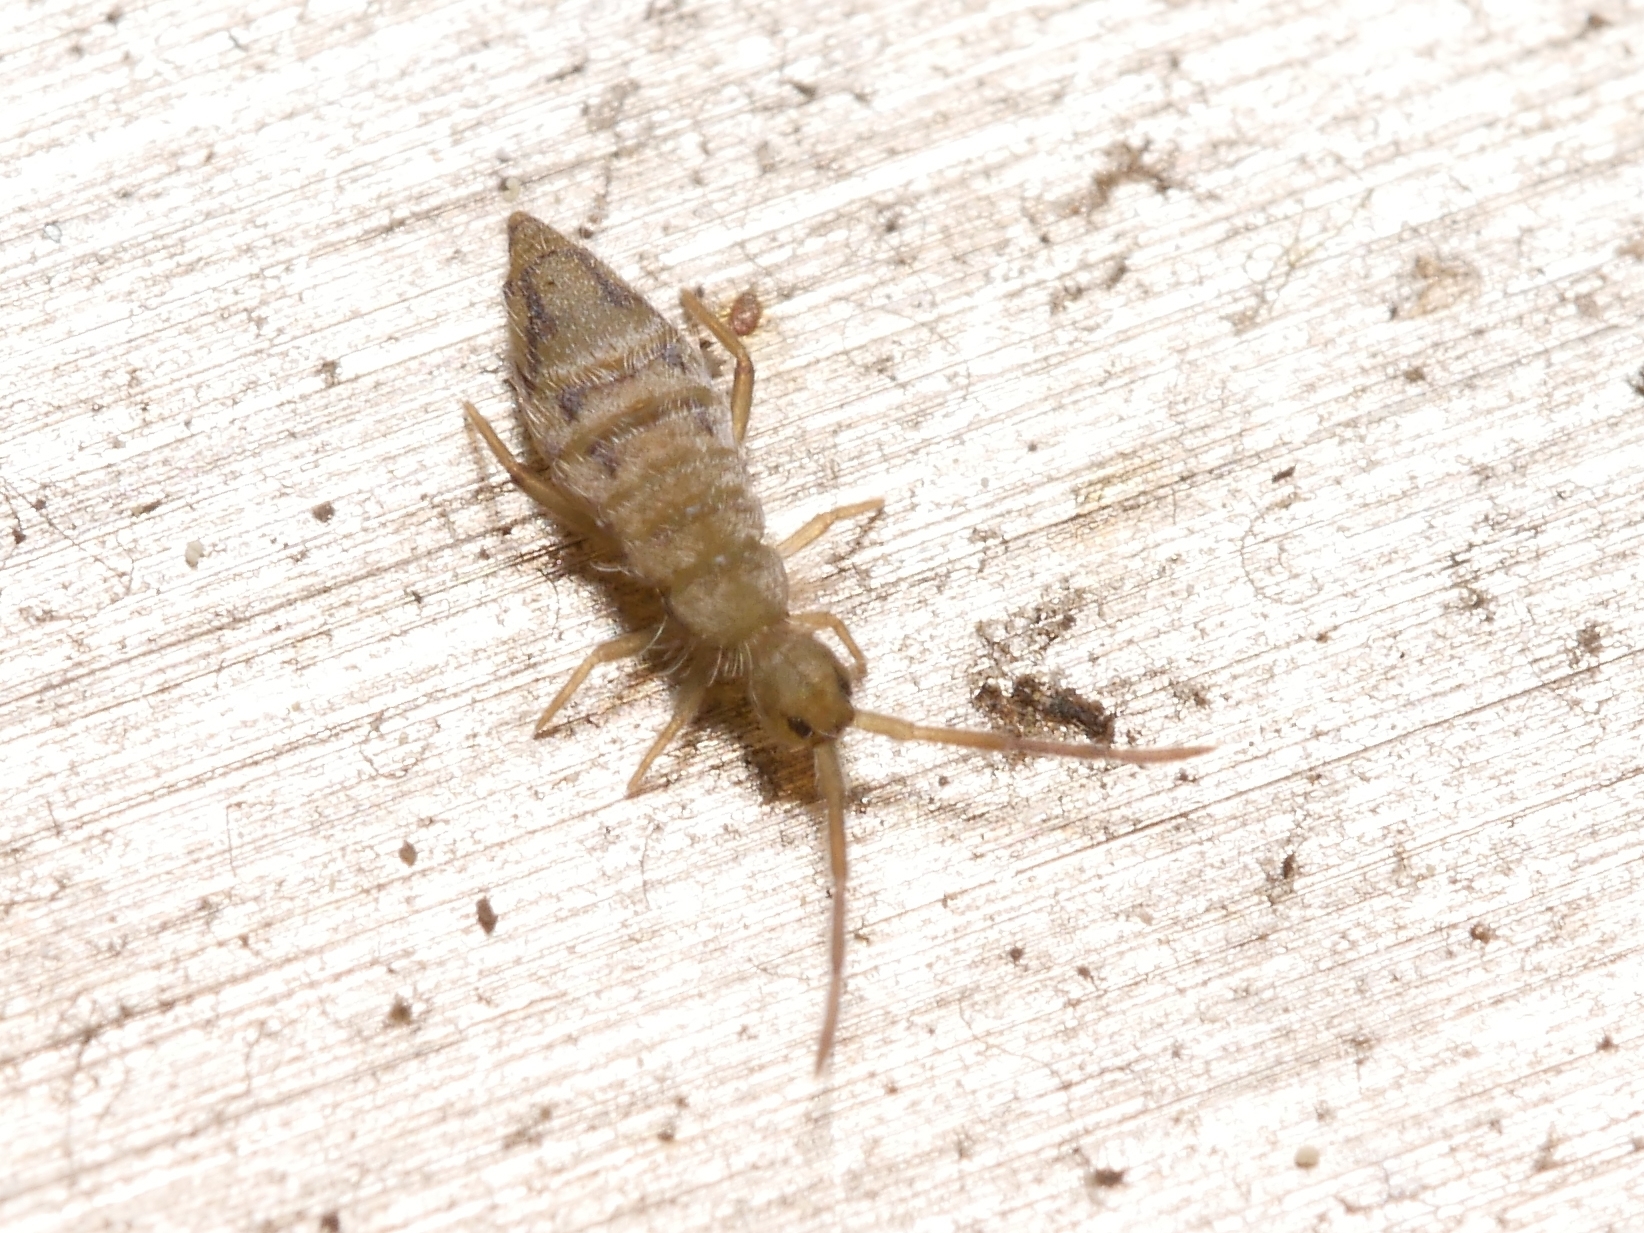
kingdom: Animalia
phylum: Arthropoda
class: Collembola
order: Entomobryomorpha
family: Entomobryidae
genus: Entomobrya
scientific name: Entomobrya nivalis
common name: Cosmopolitan springtail
